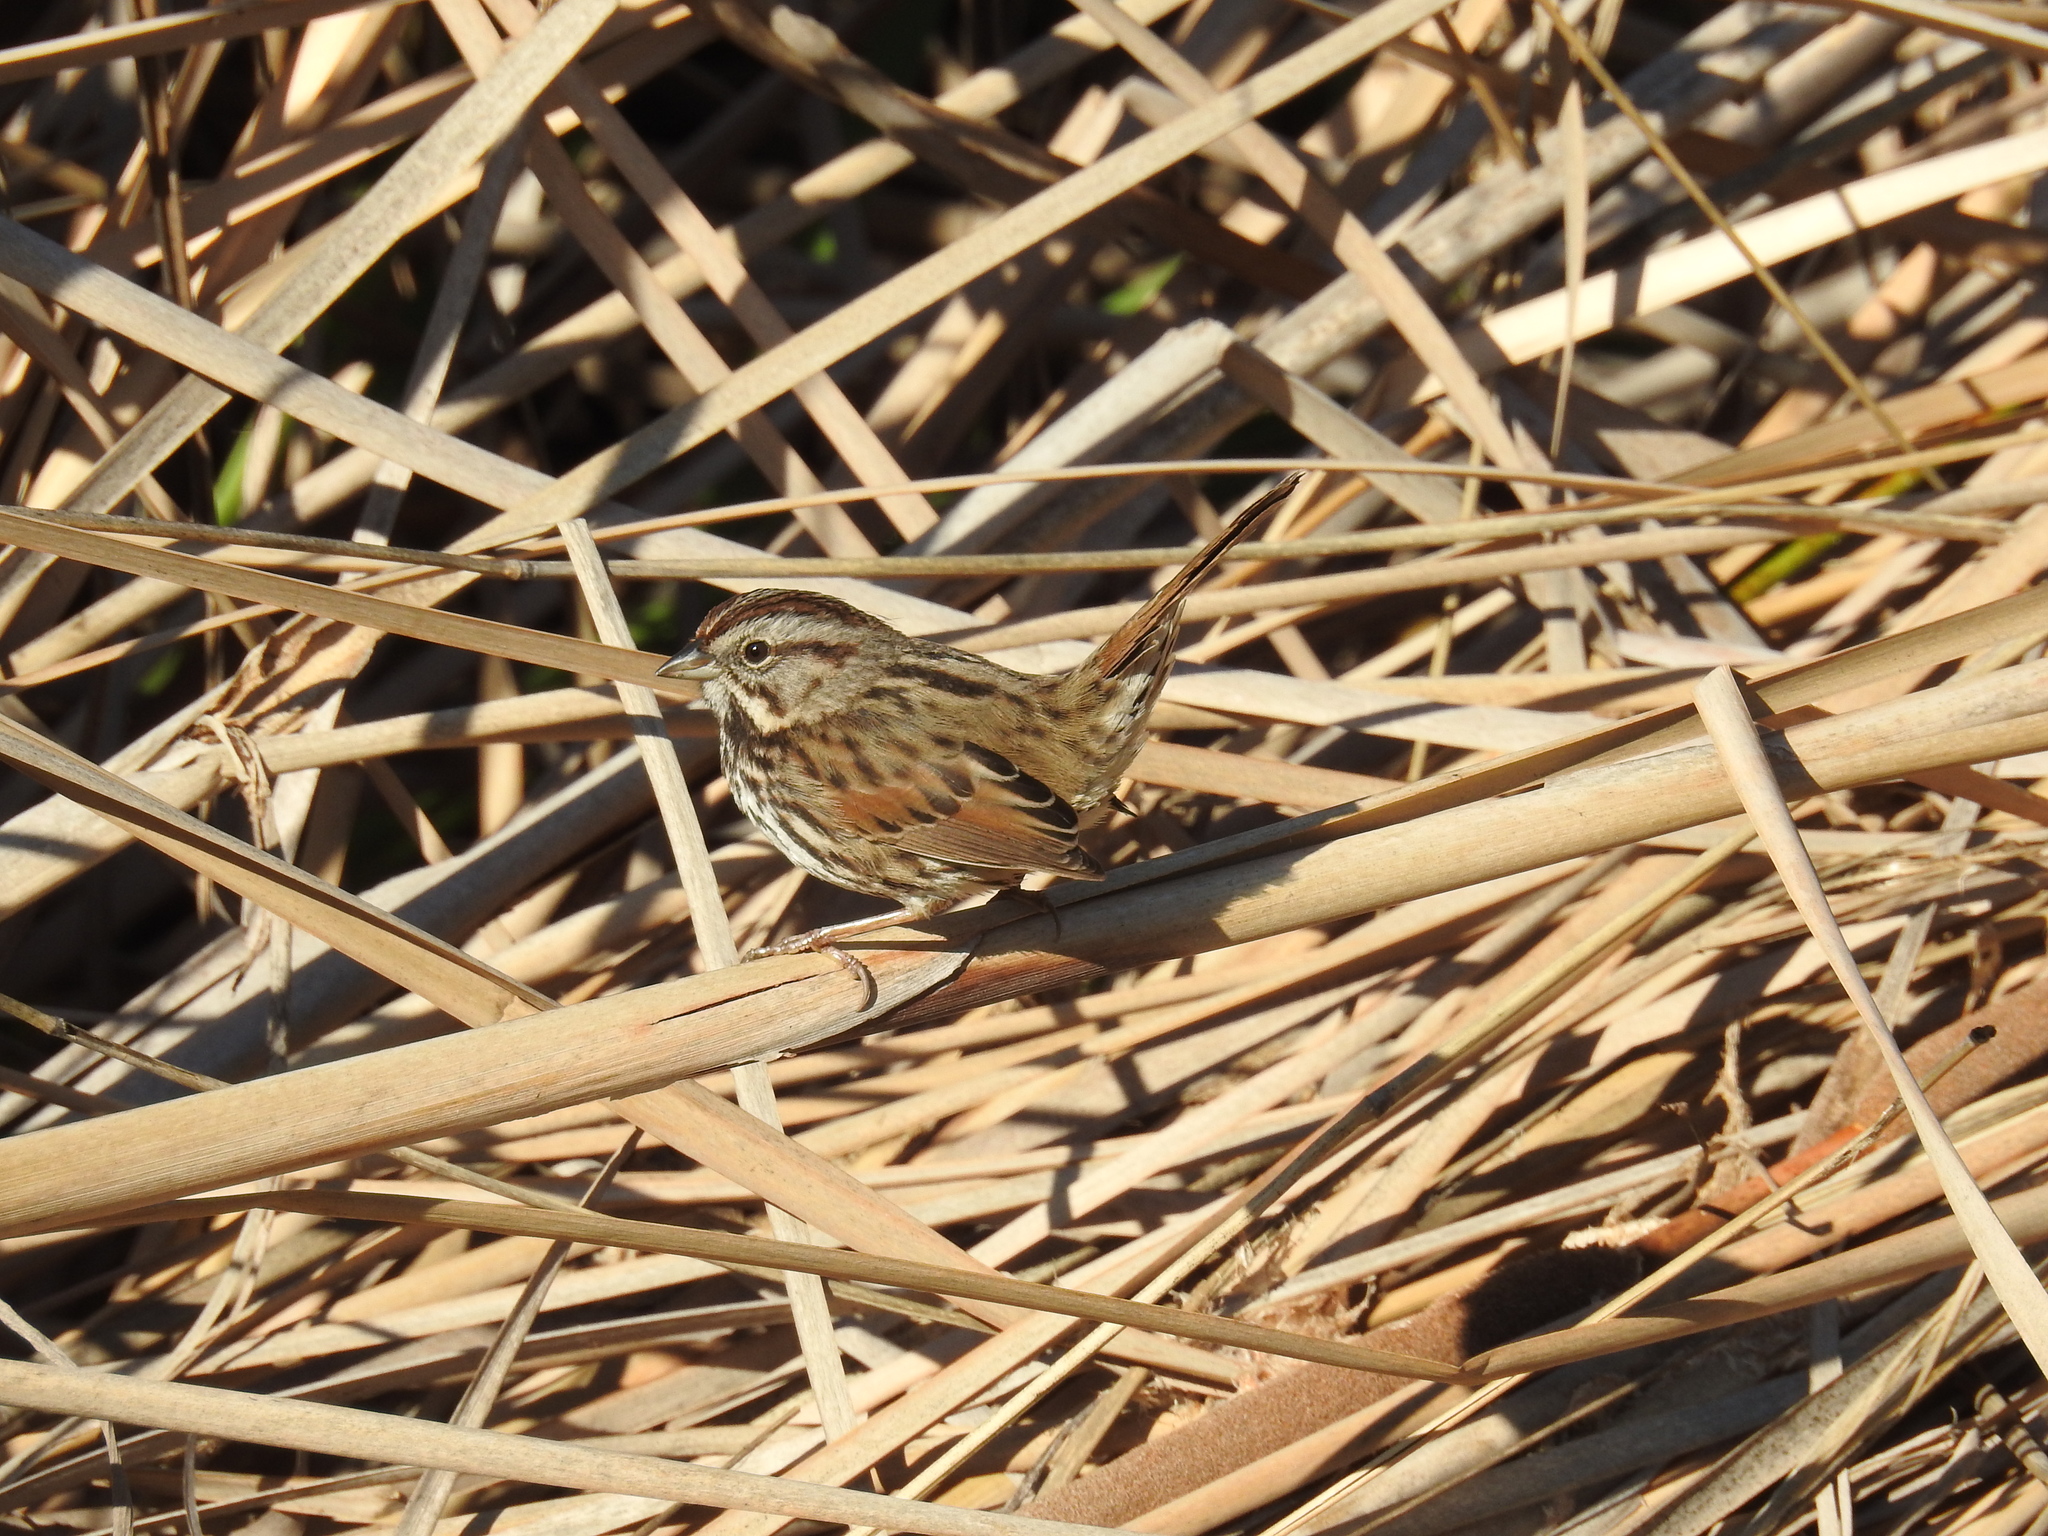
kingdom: Animalia
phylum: Chordata
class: Aves
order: Passeriformes
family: Passerellidae
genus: Melospiza
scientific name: Melospiza melodia
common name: Song sparrow
